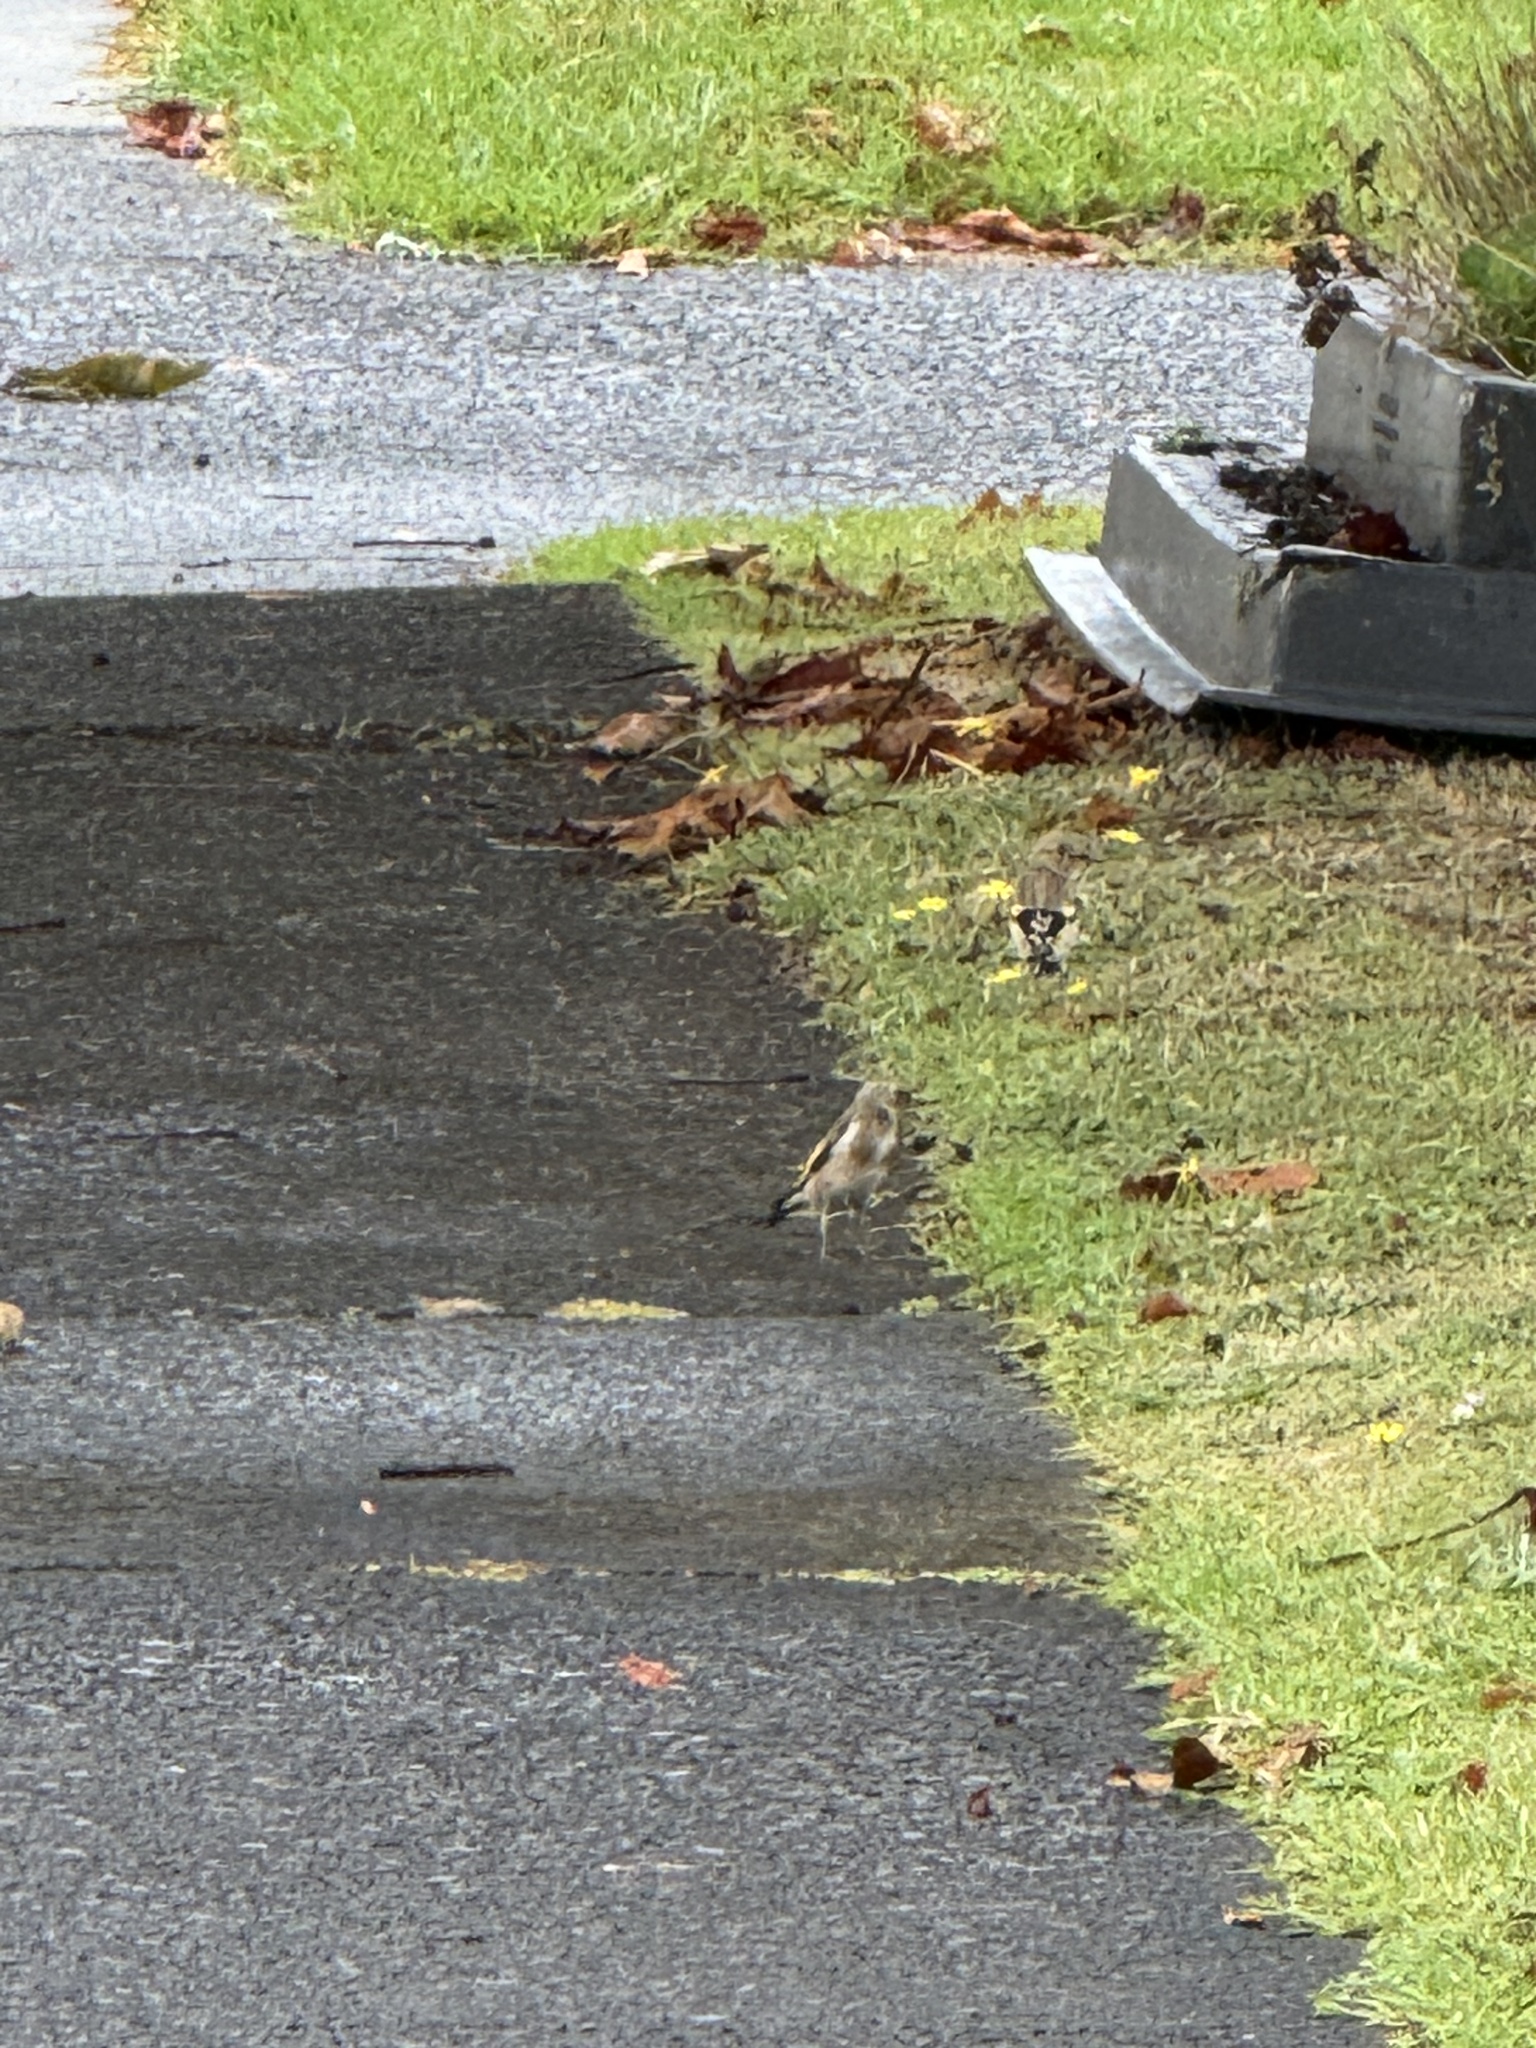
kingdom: Animalia
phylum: Chordata
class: Aves
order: Passeriformes
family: Fringillidae
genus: Carduelis
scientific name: Carduelis carduelis
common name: European goldfinch
